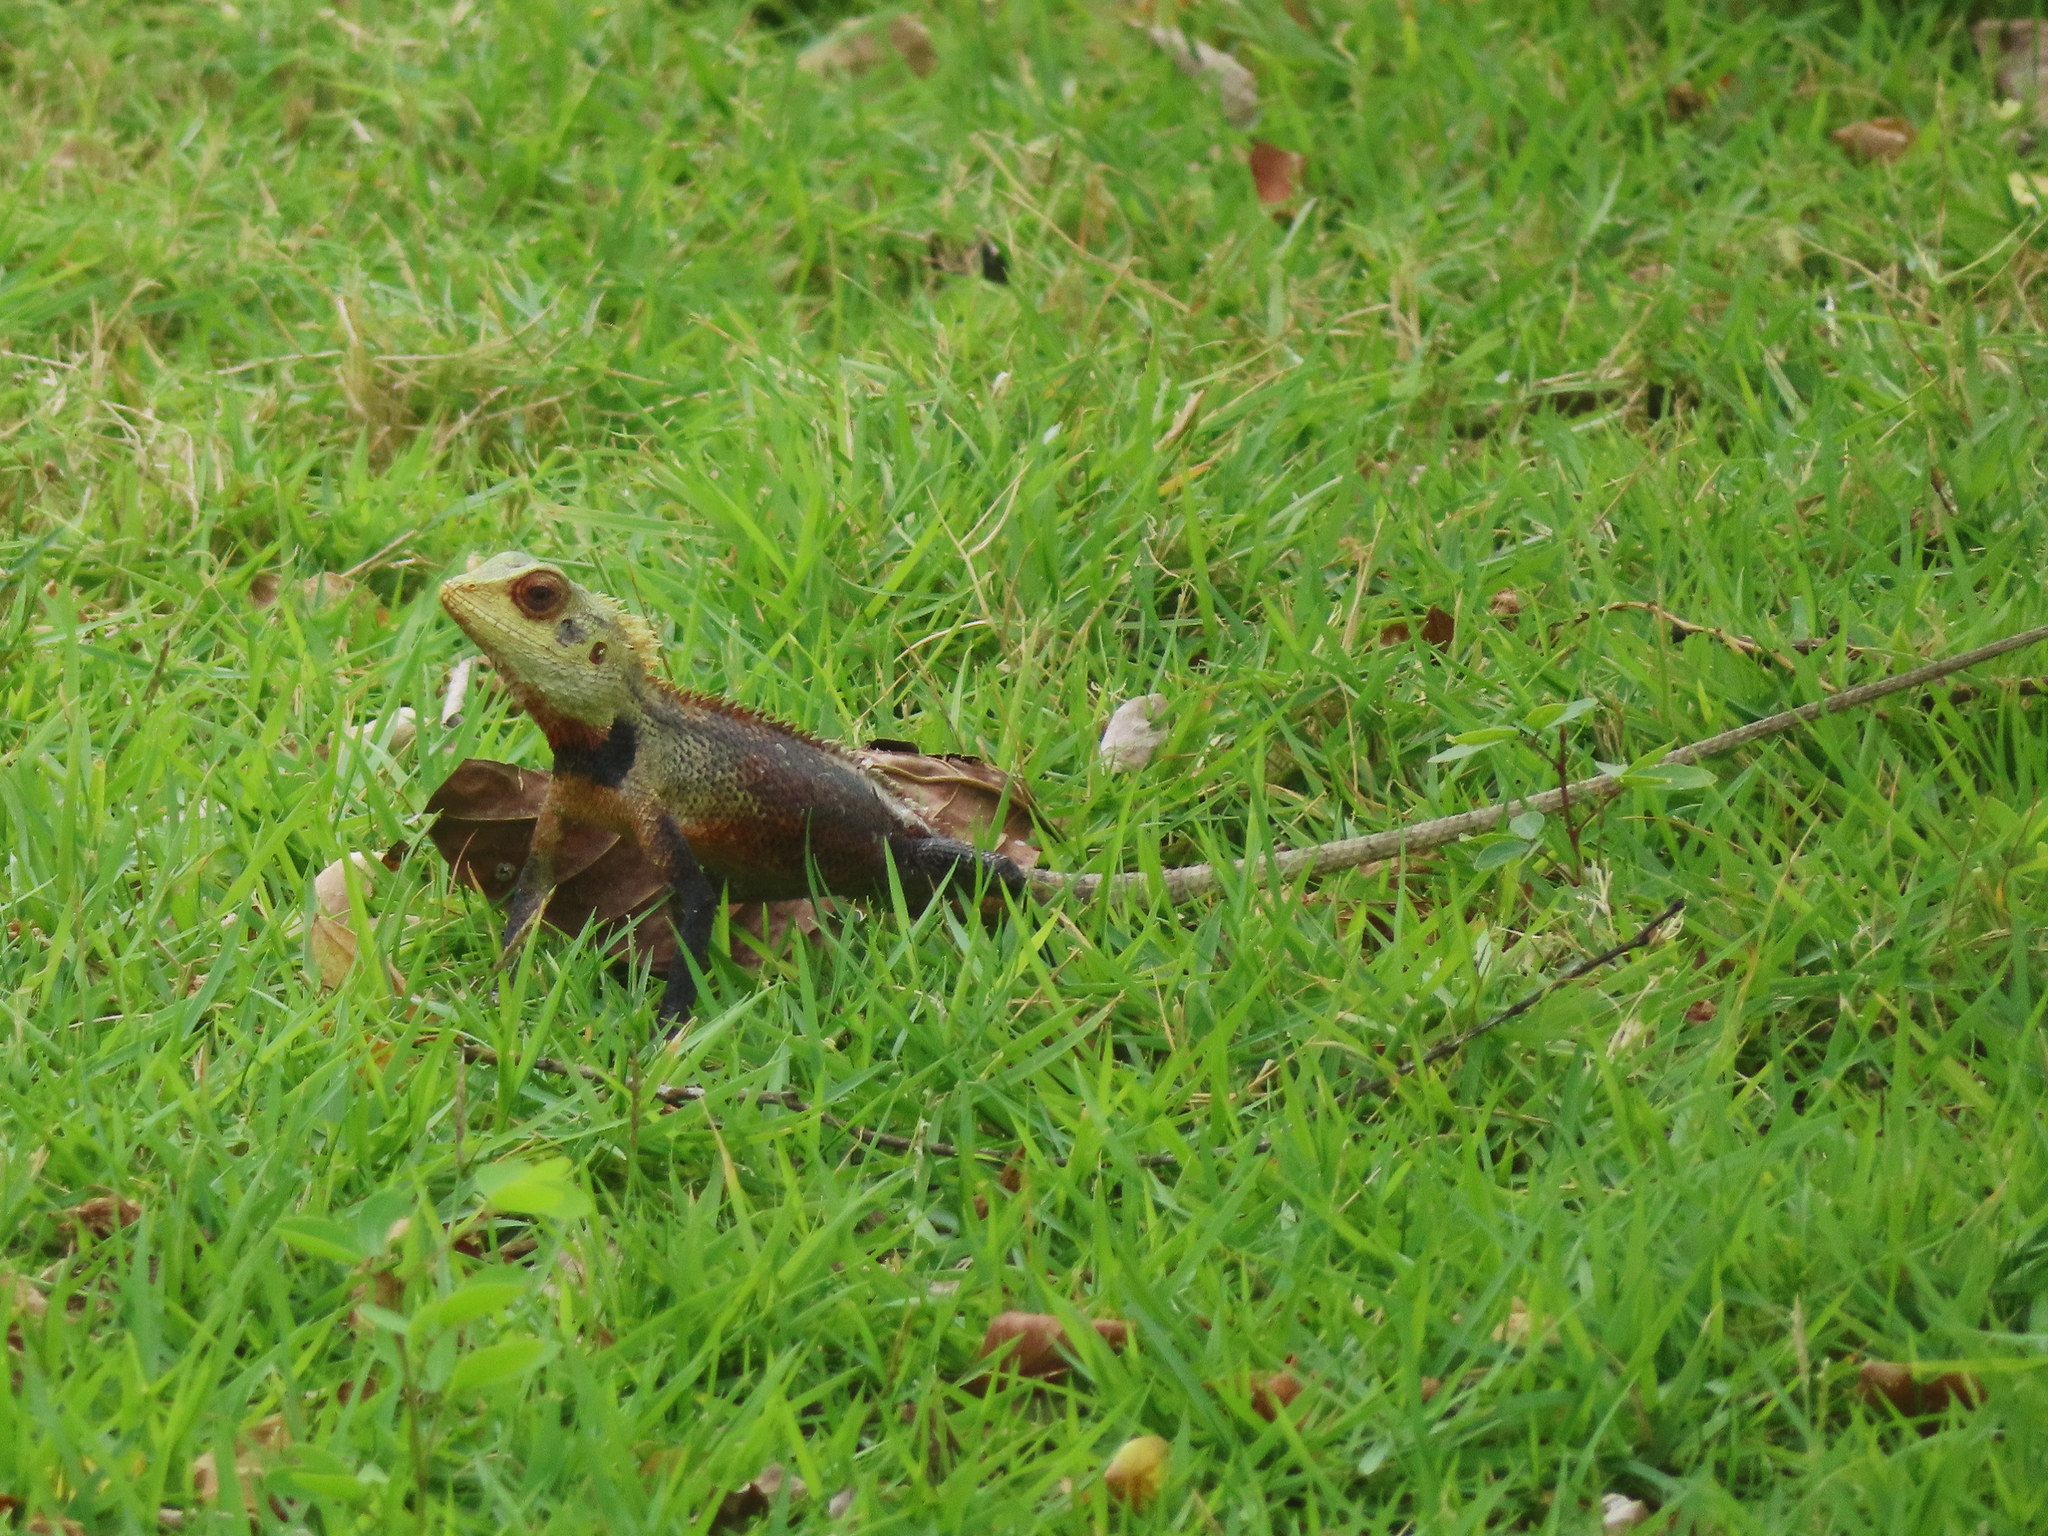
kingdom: Animalia
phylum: Chordata
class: Squamata
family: Agamidae
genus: Calotes
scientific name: Calotes versicolor
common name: Oriental garden lizard
